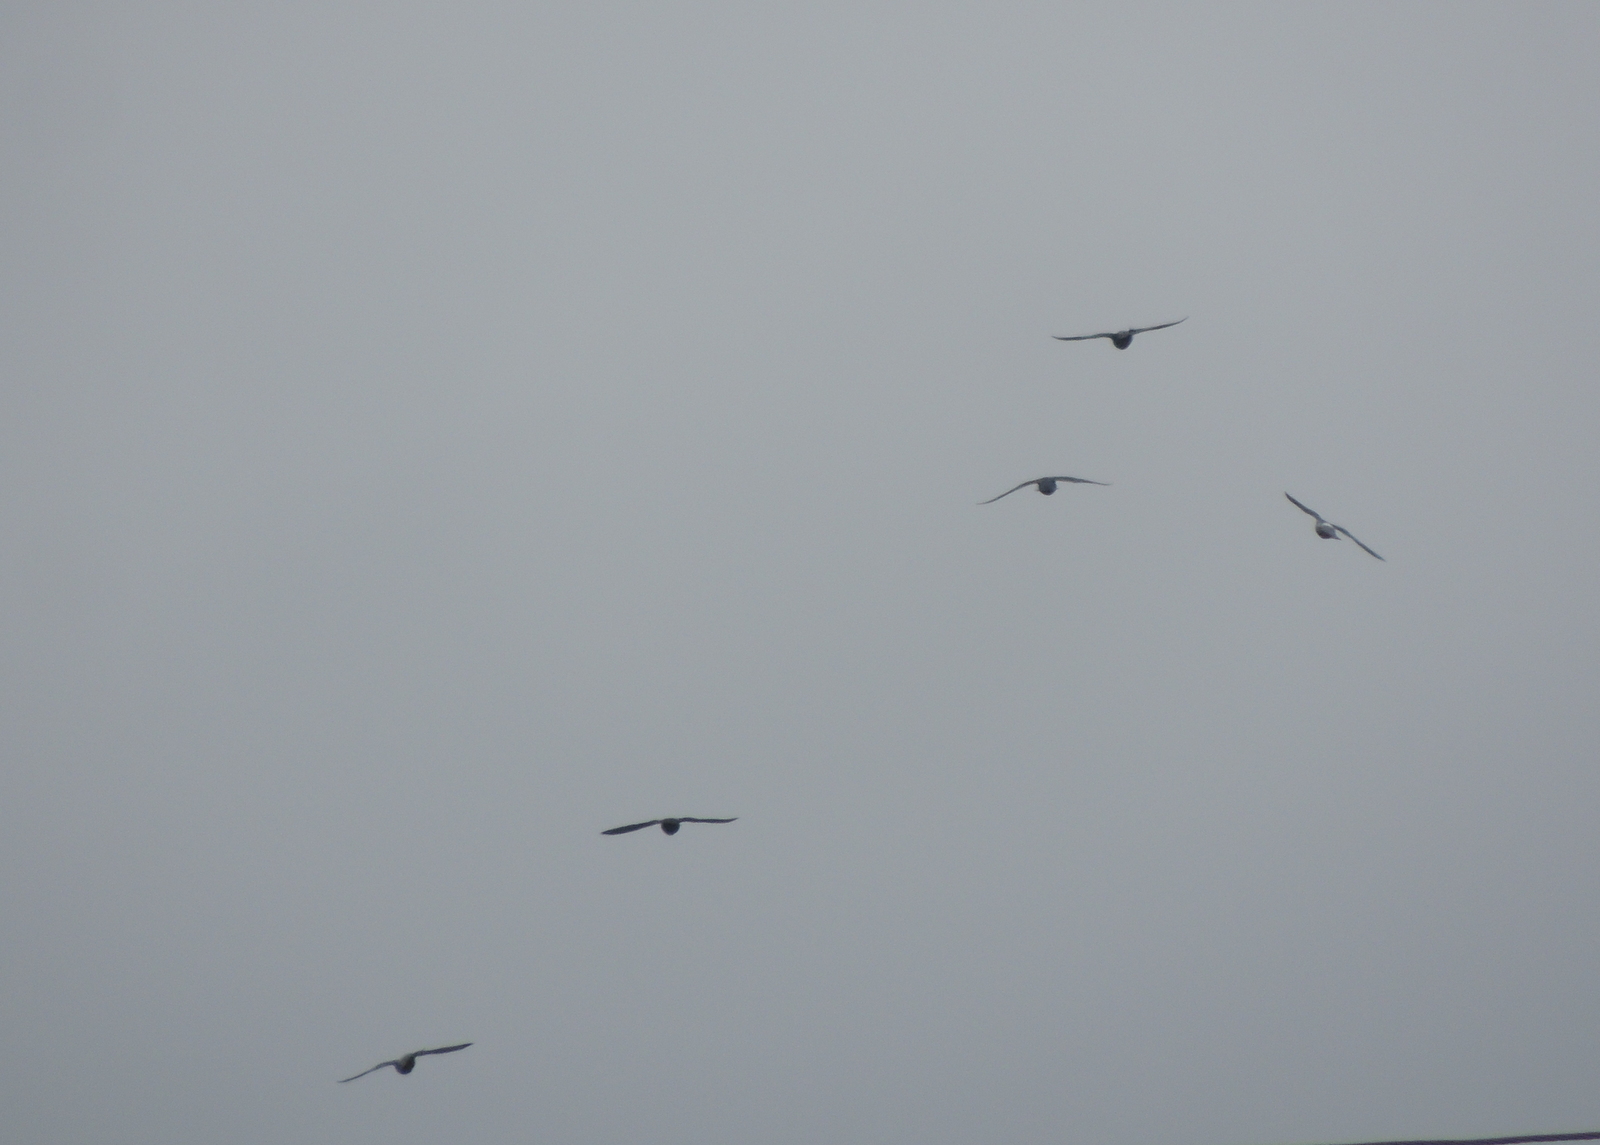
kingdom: Animalia
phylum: Chordata
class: Aves
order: Columbiformes
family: Columbidae
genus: Columba
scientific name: Columba livia
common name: Rock pigeon
